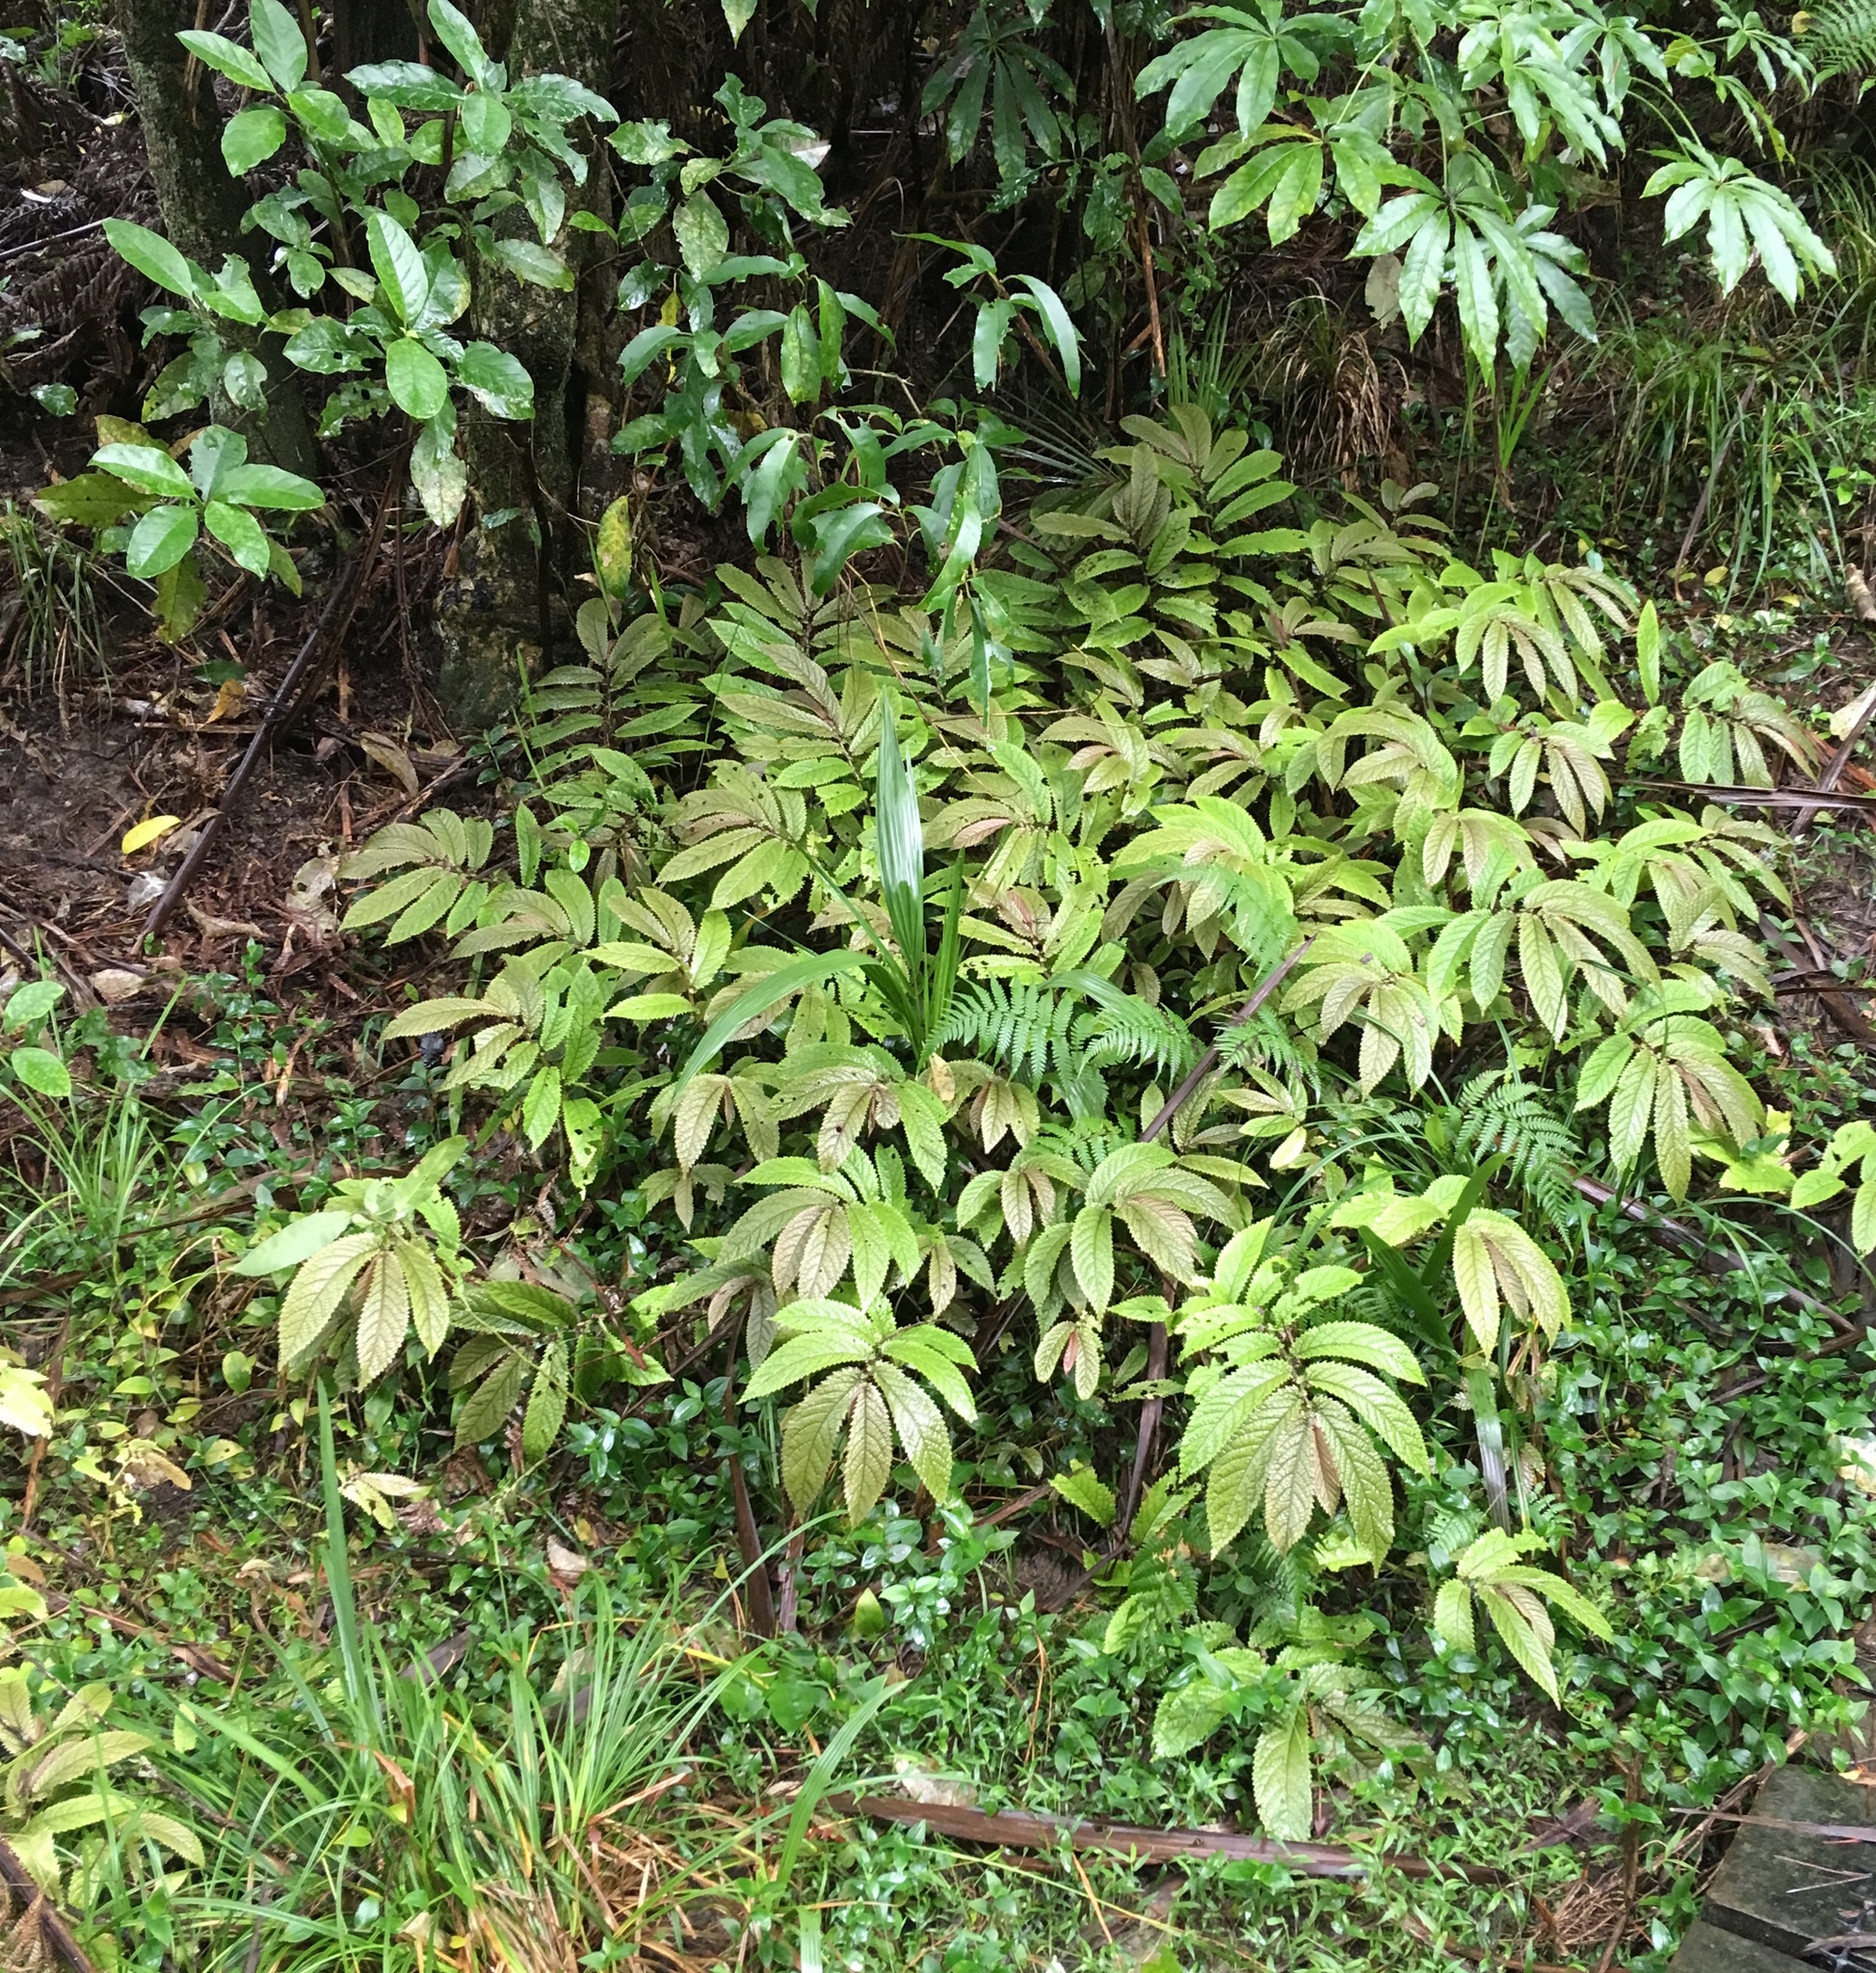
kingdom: Plantae
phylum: Tracheophyta
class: Liliopsida
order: Arecales
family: Arecaceae
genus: Phoenix
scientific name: Phoenix canariensis
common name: Canary island date palm
